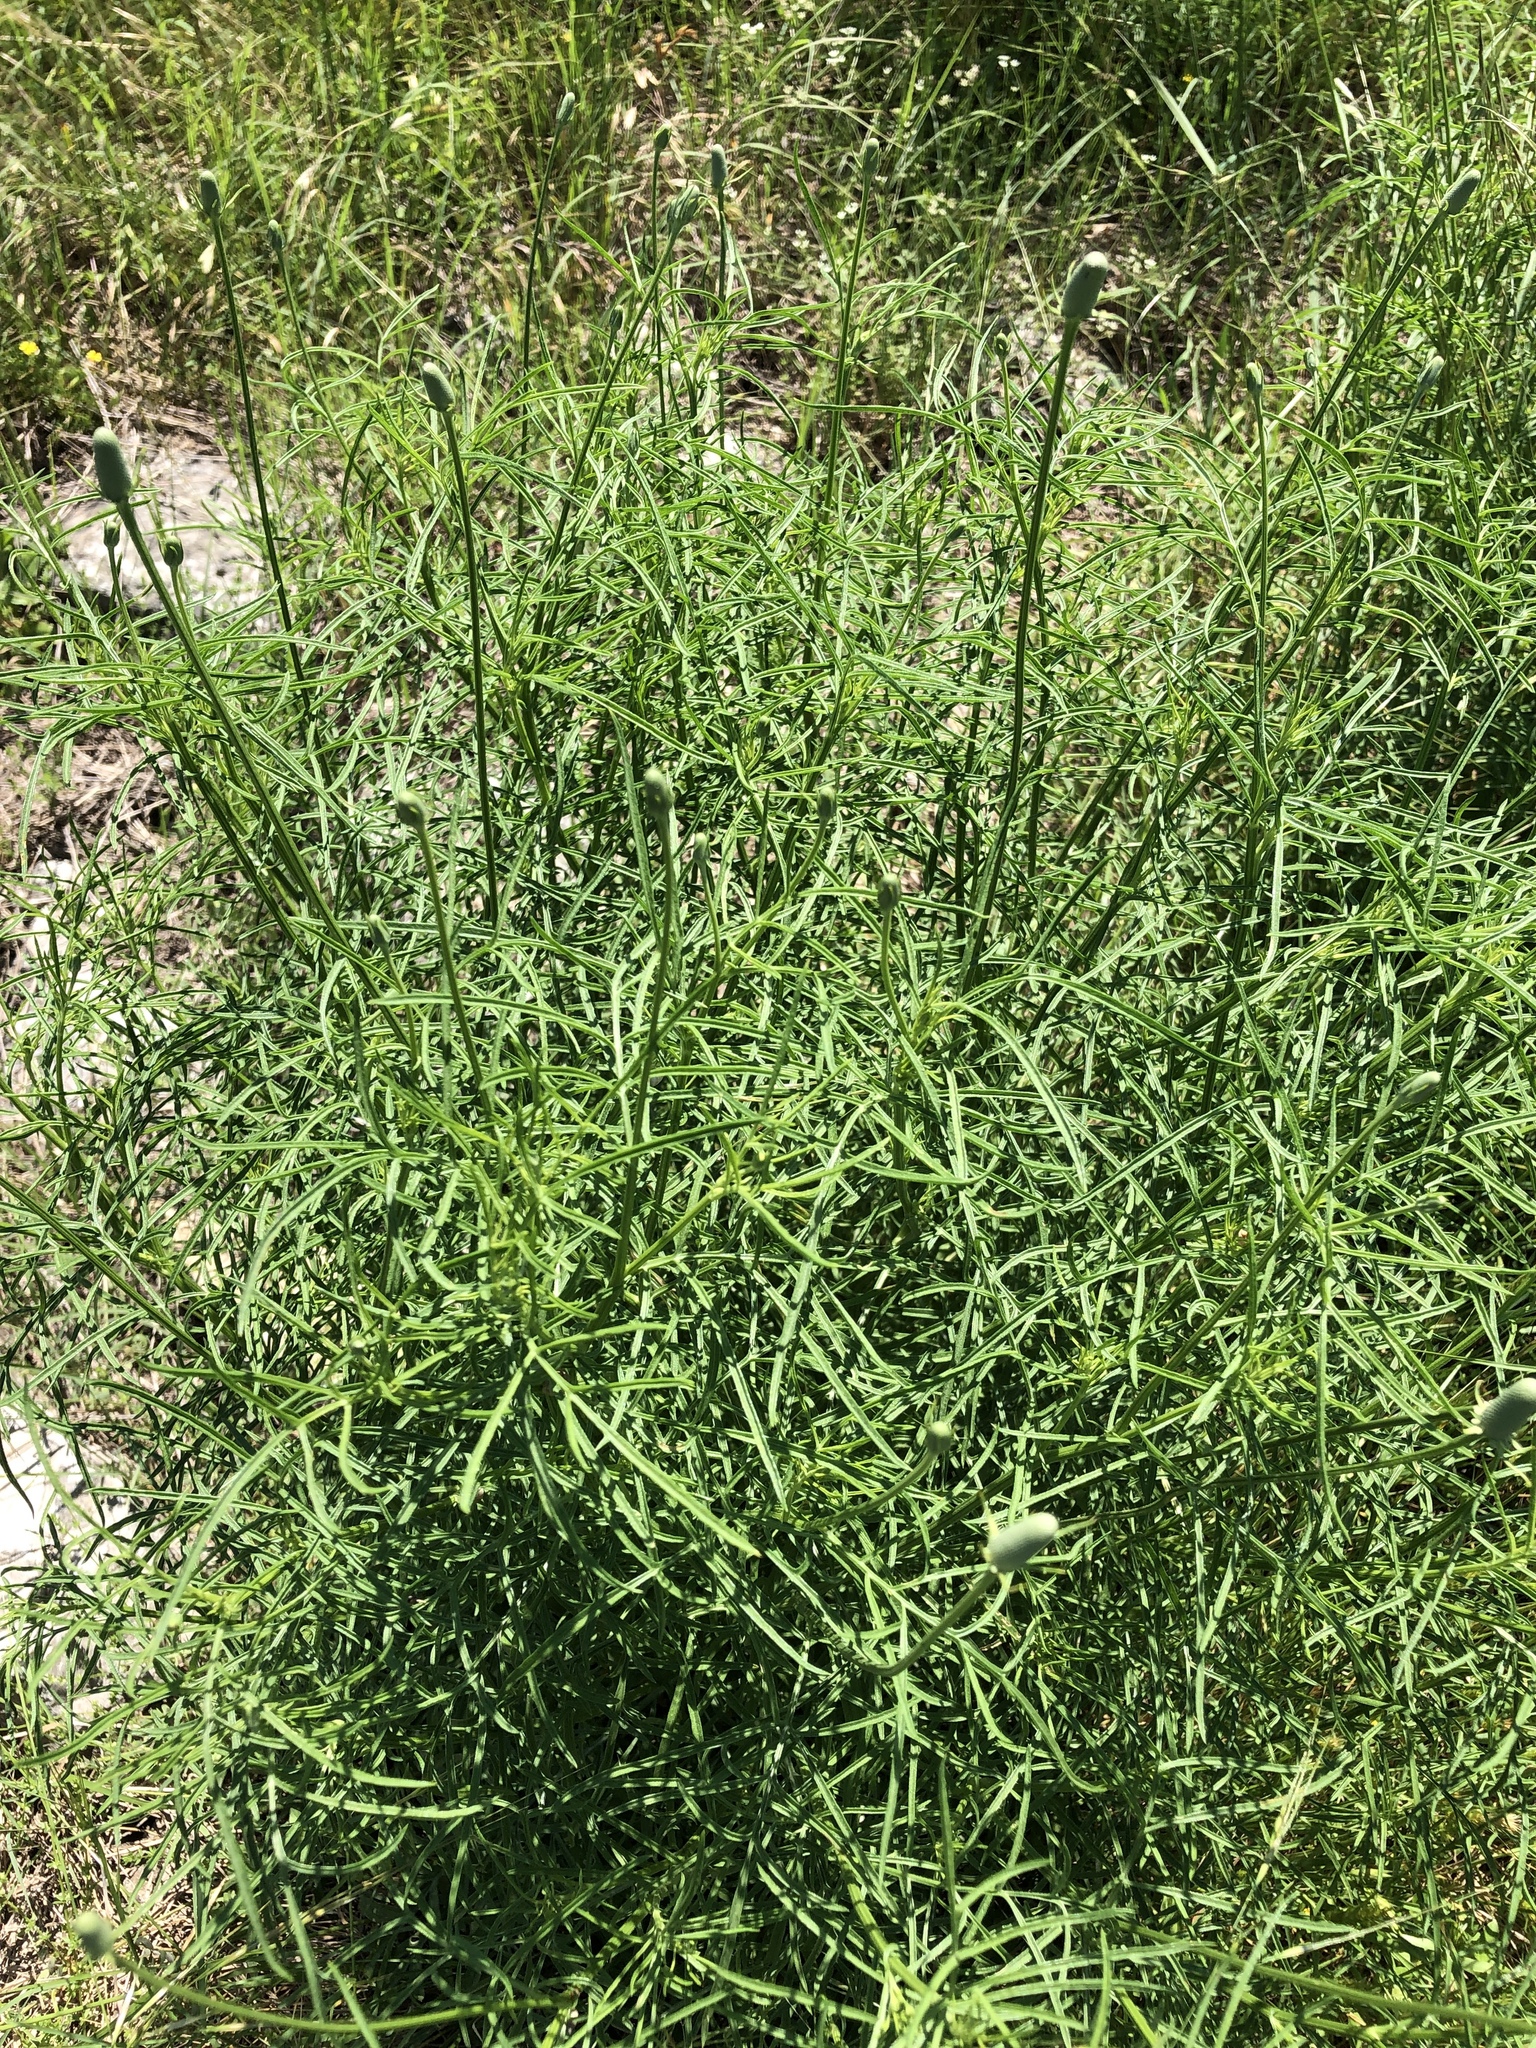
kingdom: Plantae
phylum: Tracheophyta
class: Magnoliopsida
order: Asterales
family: Asteraceae
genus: Ratibida
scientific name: Ratibida columnifera
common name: Prairie coneflower
